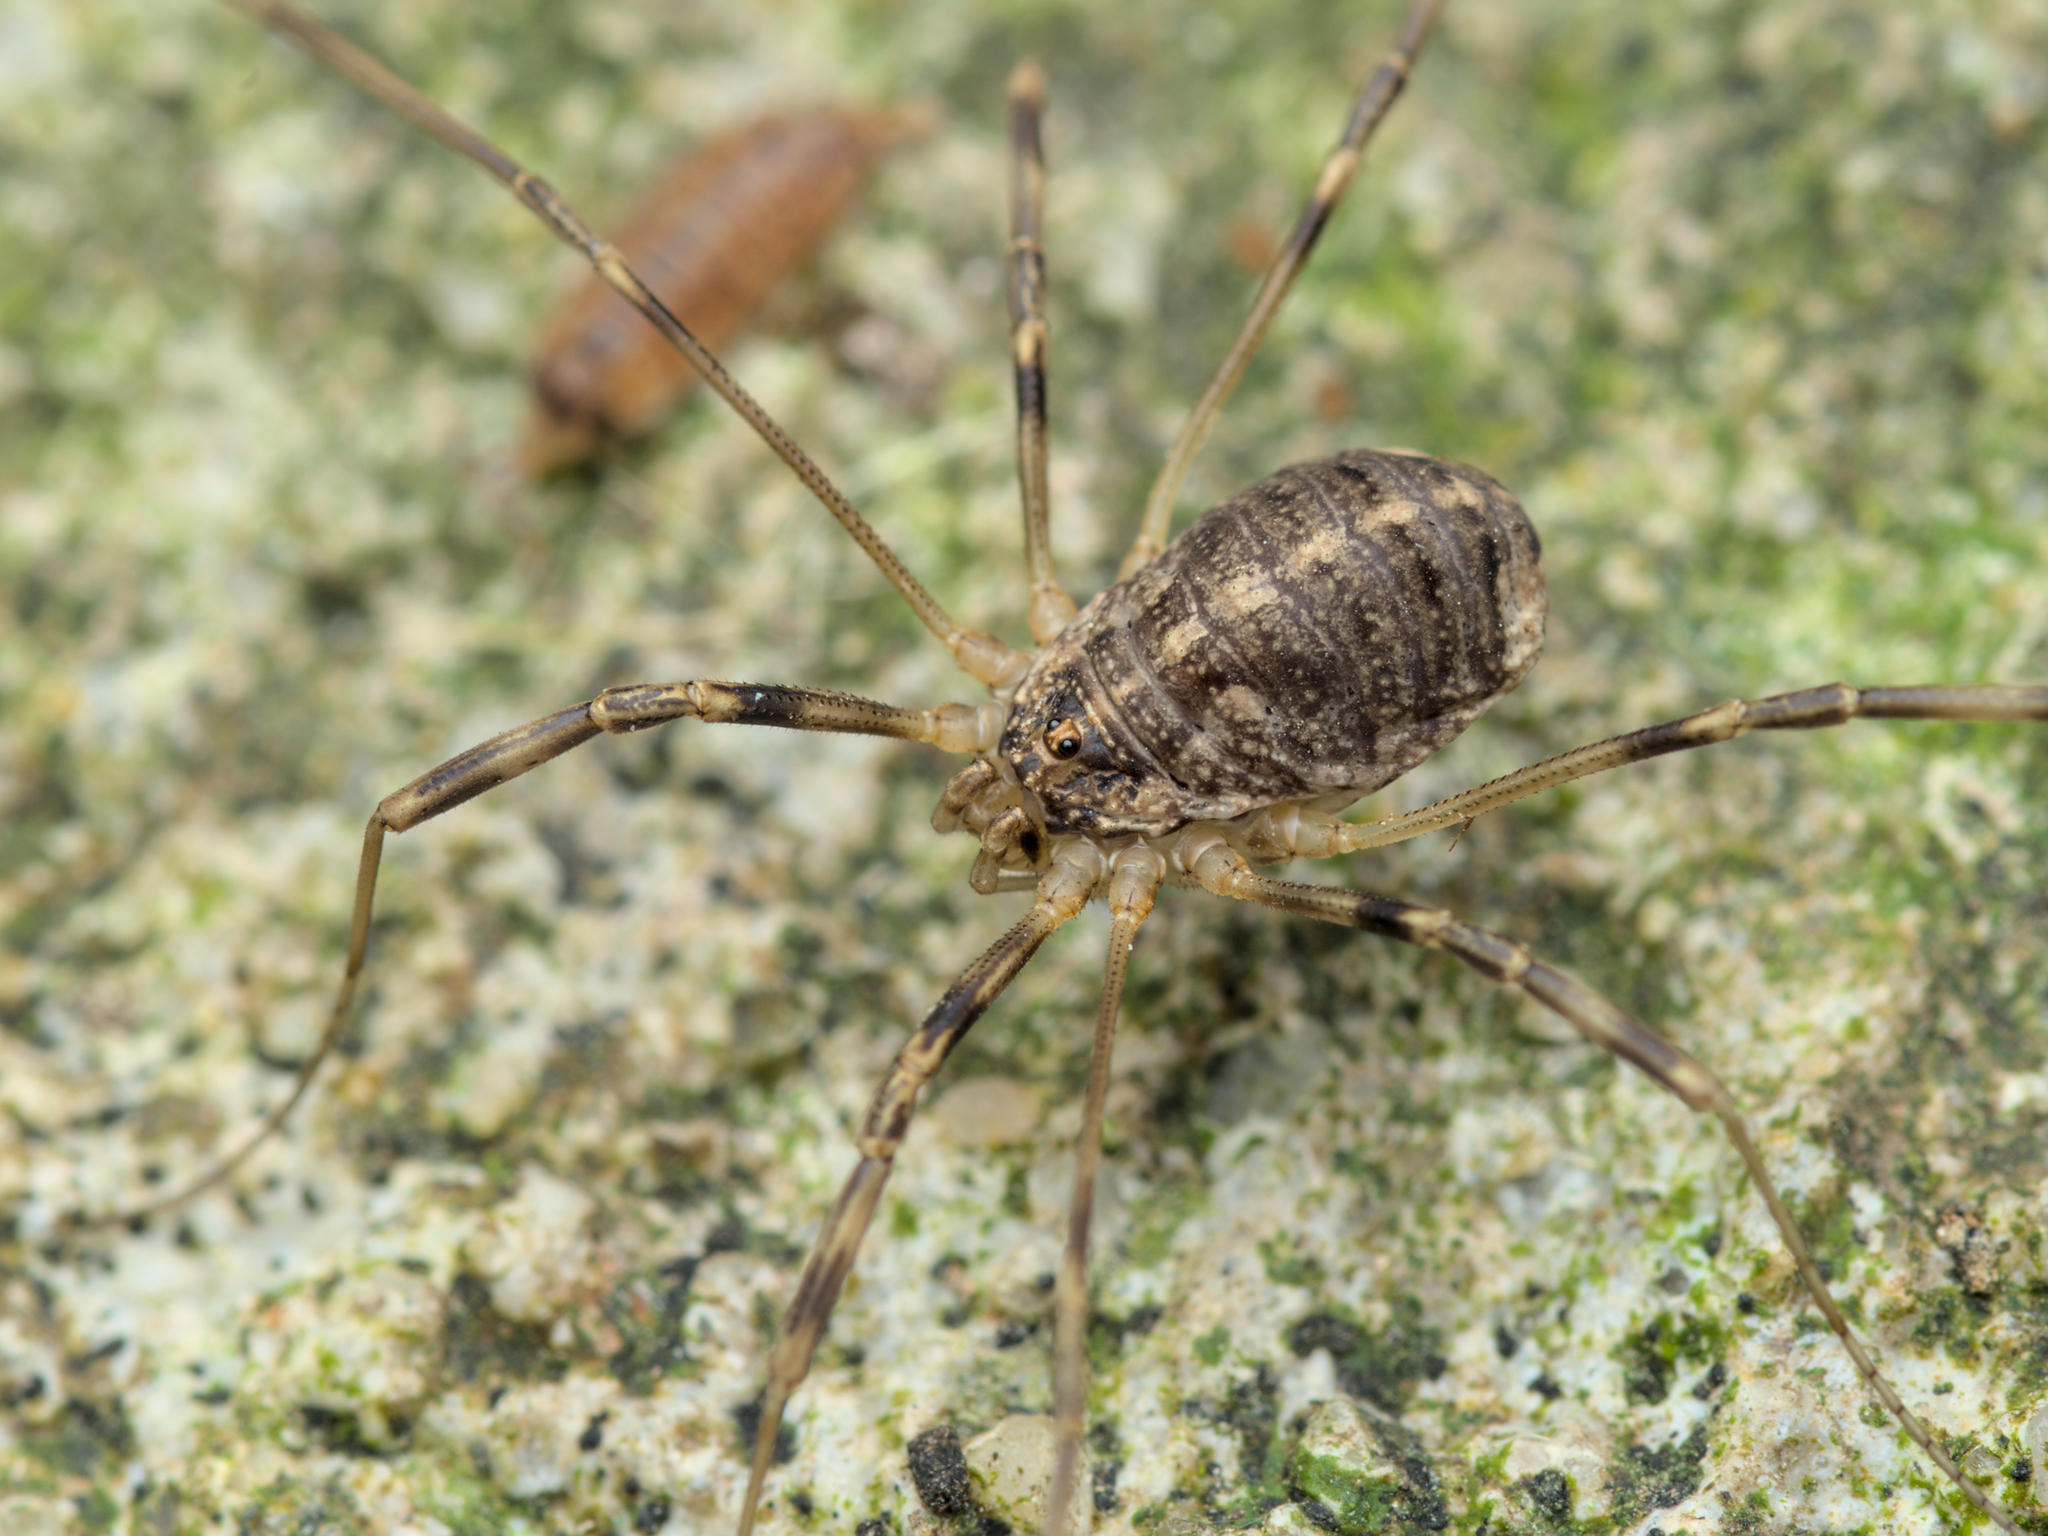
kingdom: Animalia
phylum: Arthropoda
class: Arachnida
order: Opiliones
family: Phalangiidae
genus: Opilio
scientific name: Opilio saxatilis
